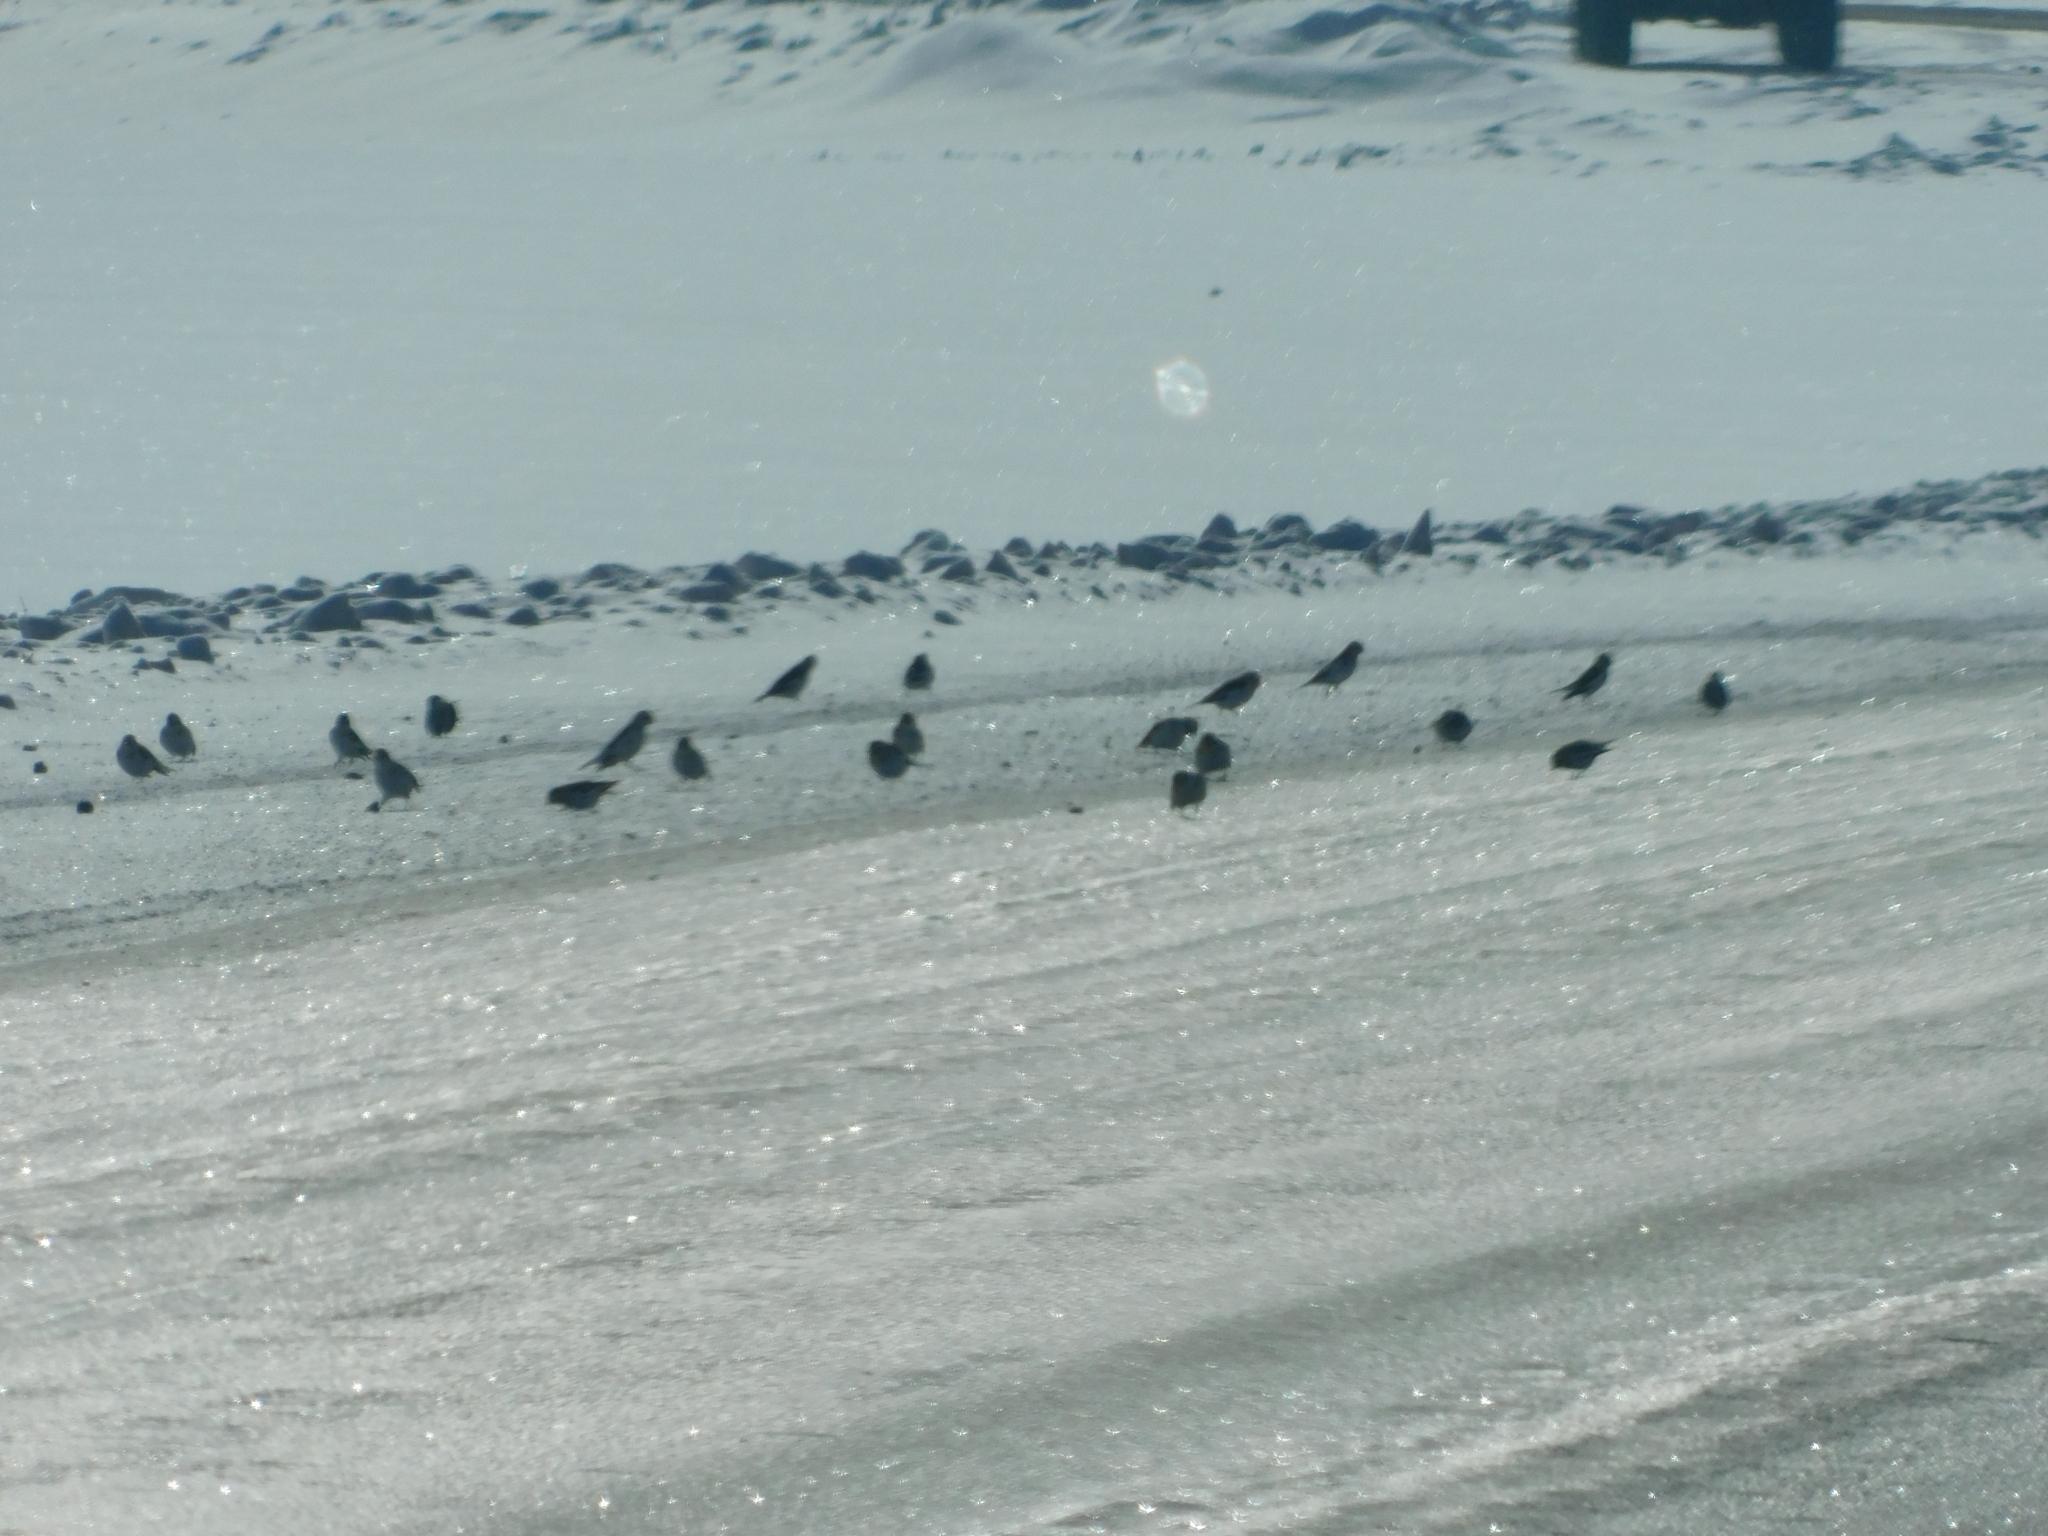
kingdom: Animalia
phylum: Chordata
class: Aves
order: Passeriformes
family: Calcariidae
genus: Plectrophenax
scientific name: Plectrophenax nivalis
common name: Snow bunting
